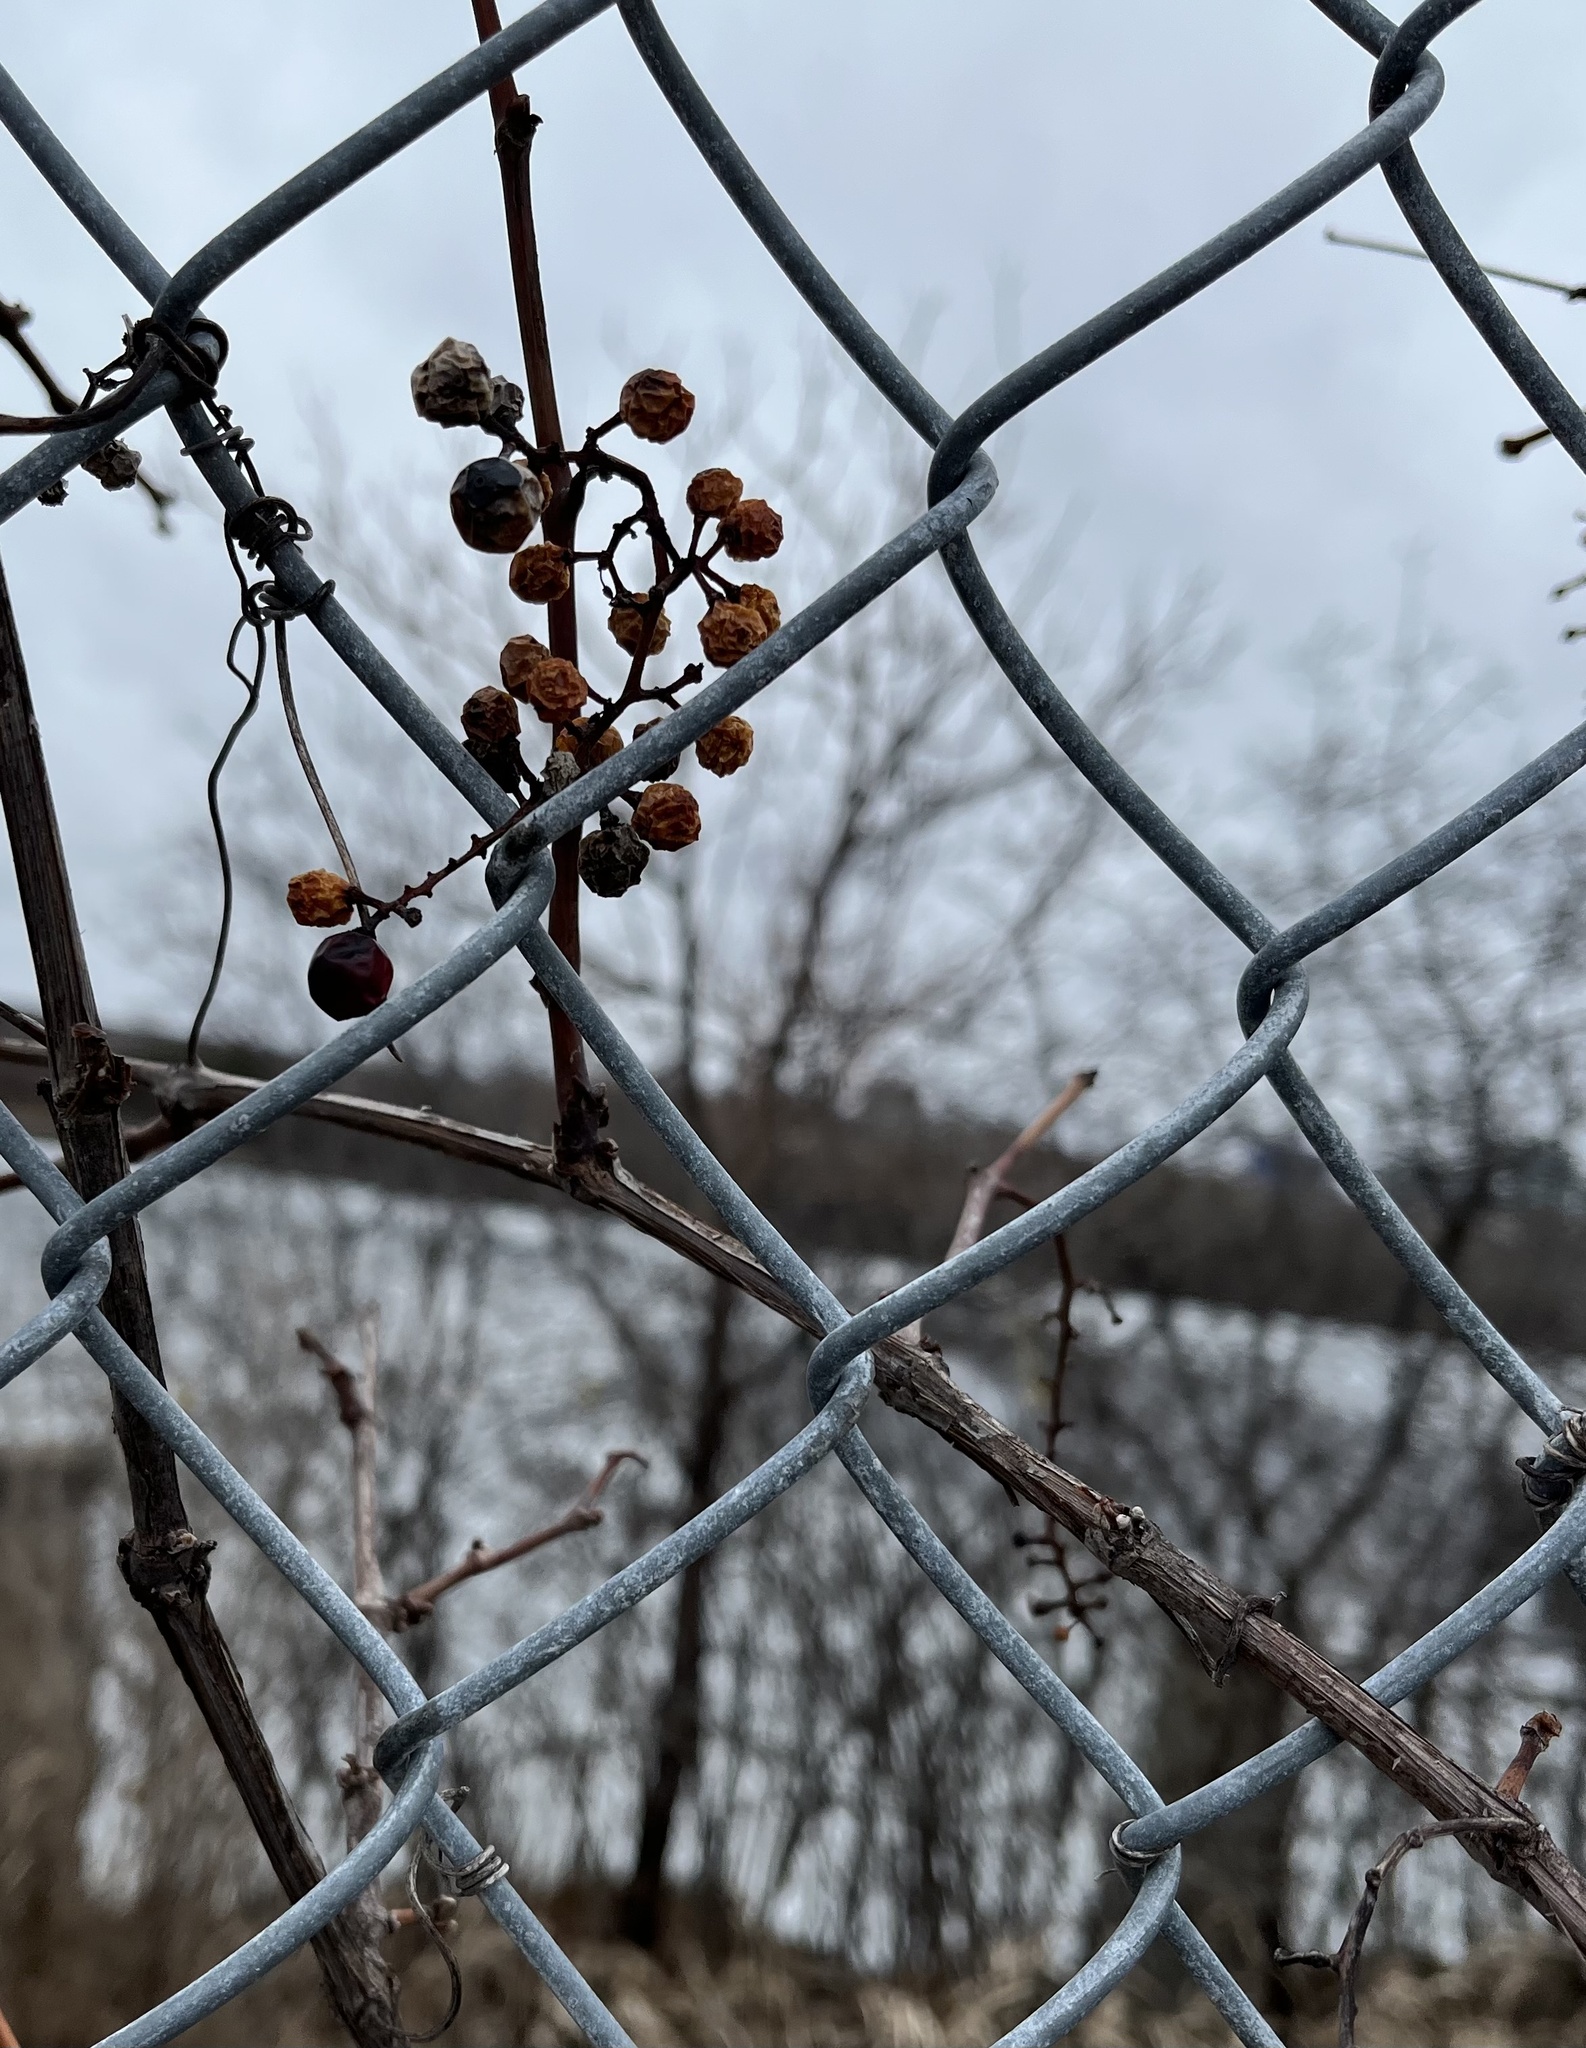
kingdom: Plantae
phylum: Tracheophyta
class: Magnoliopsida
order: Vitales
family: Vitaceae
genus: Vitis
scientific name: Vitis riparia
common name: Frost grape
